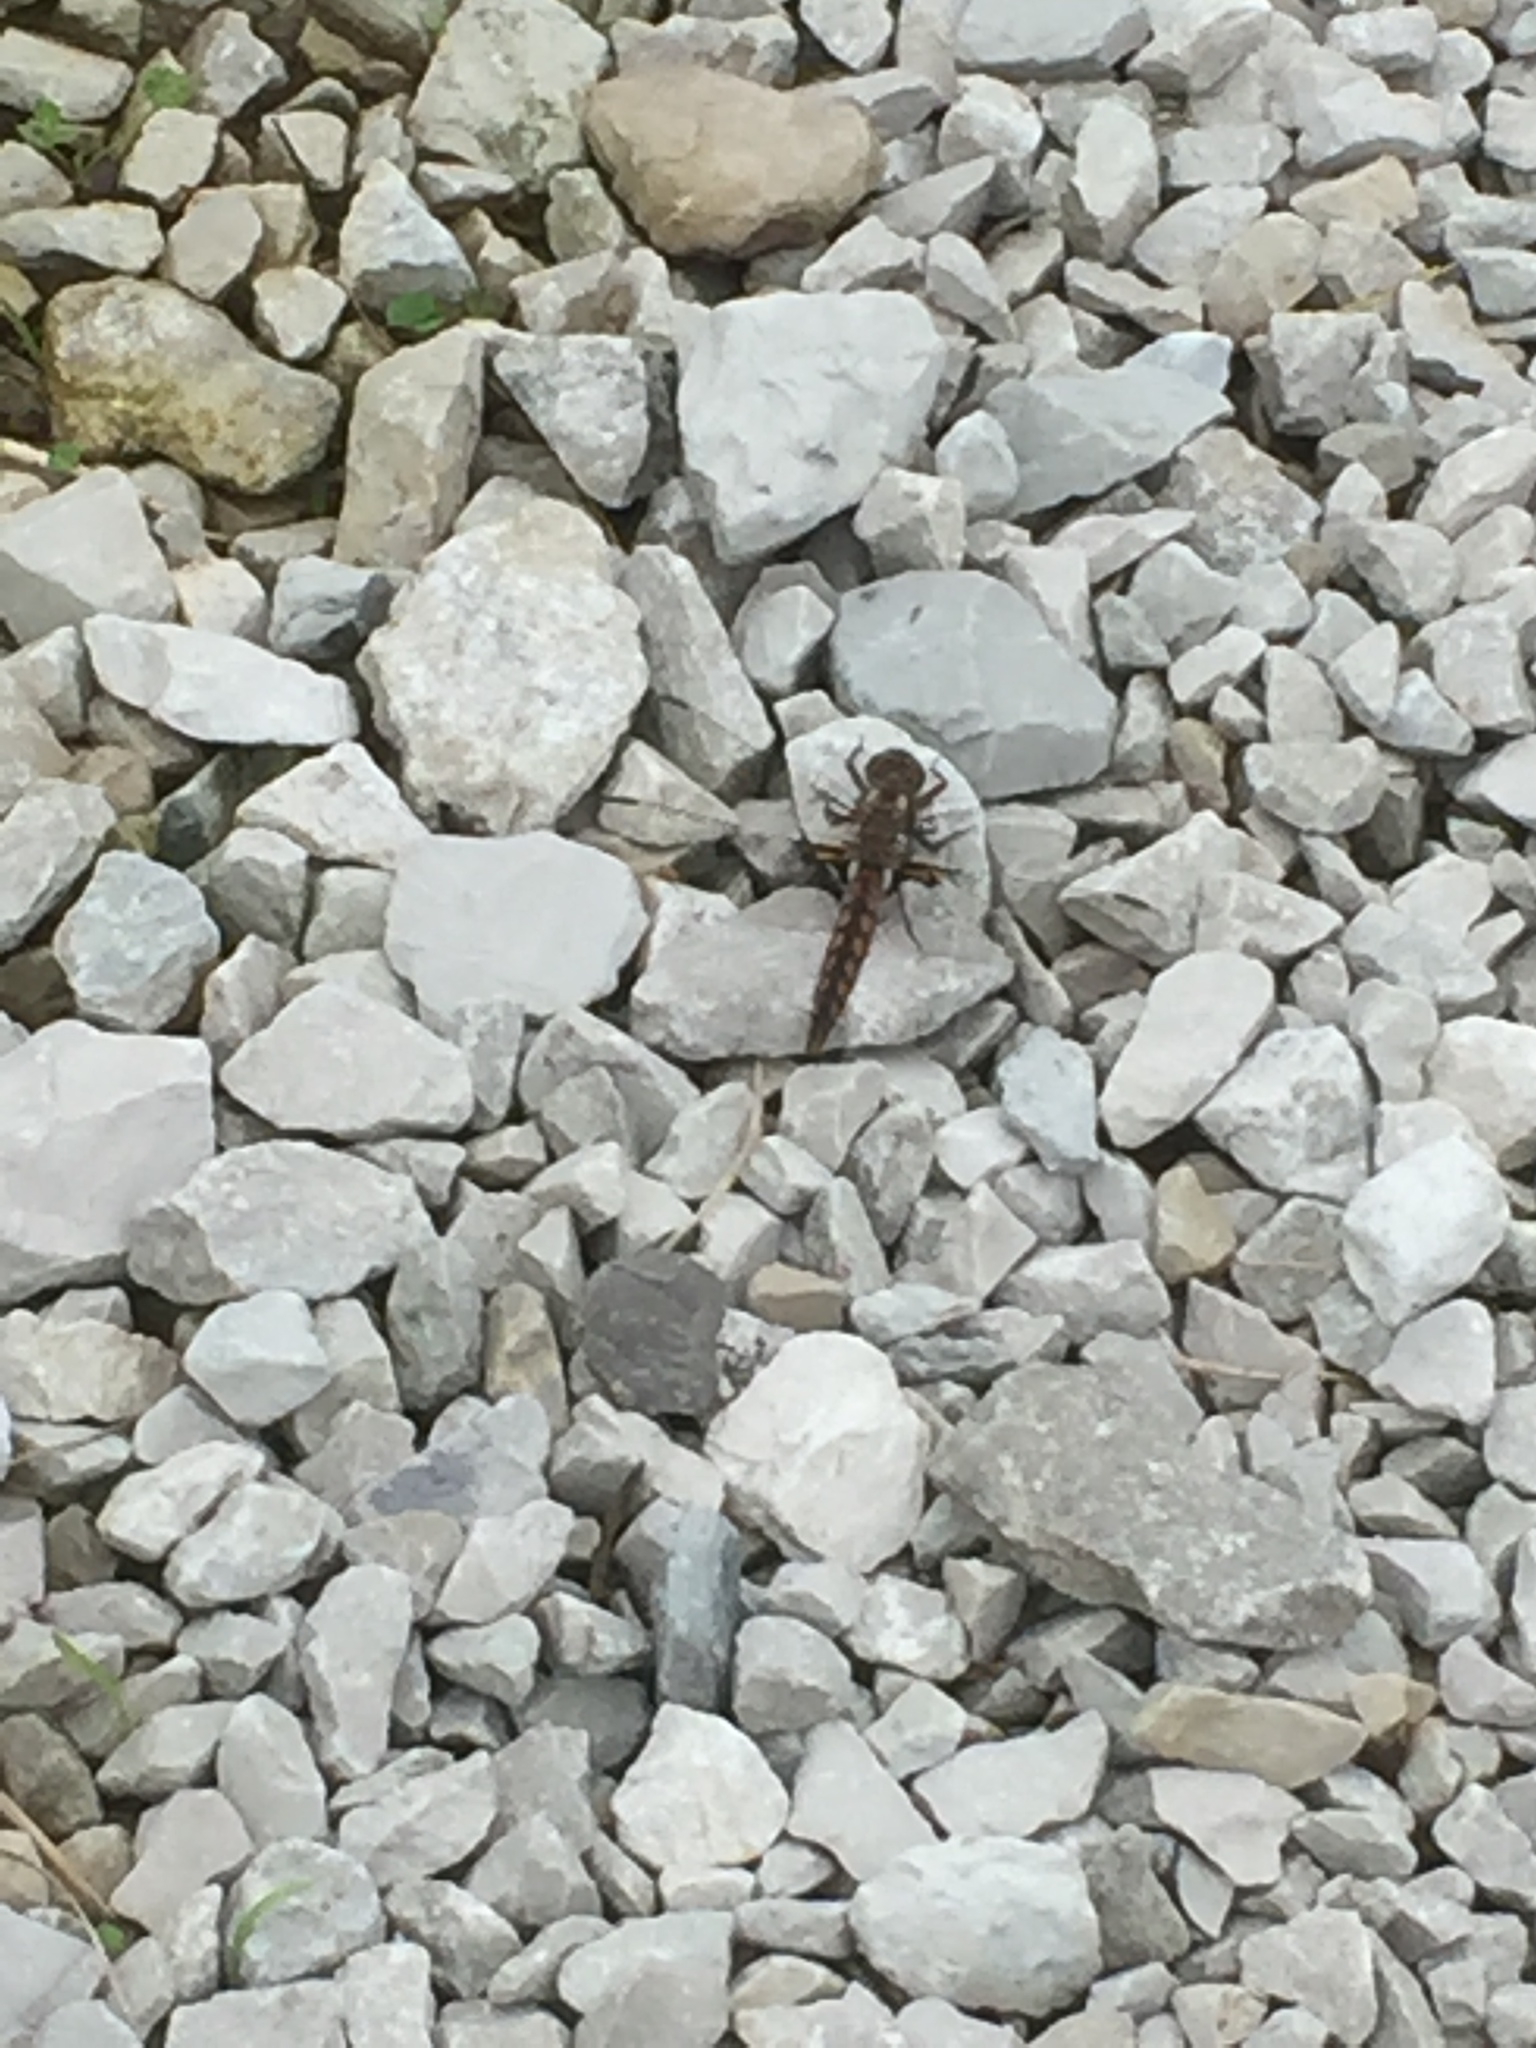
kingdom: Animalia
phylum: Arthropoda
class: Insecta
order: Odonata
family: Libellulidae
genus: Ladona
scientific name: Ladona deplanata
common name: Blue corporal
